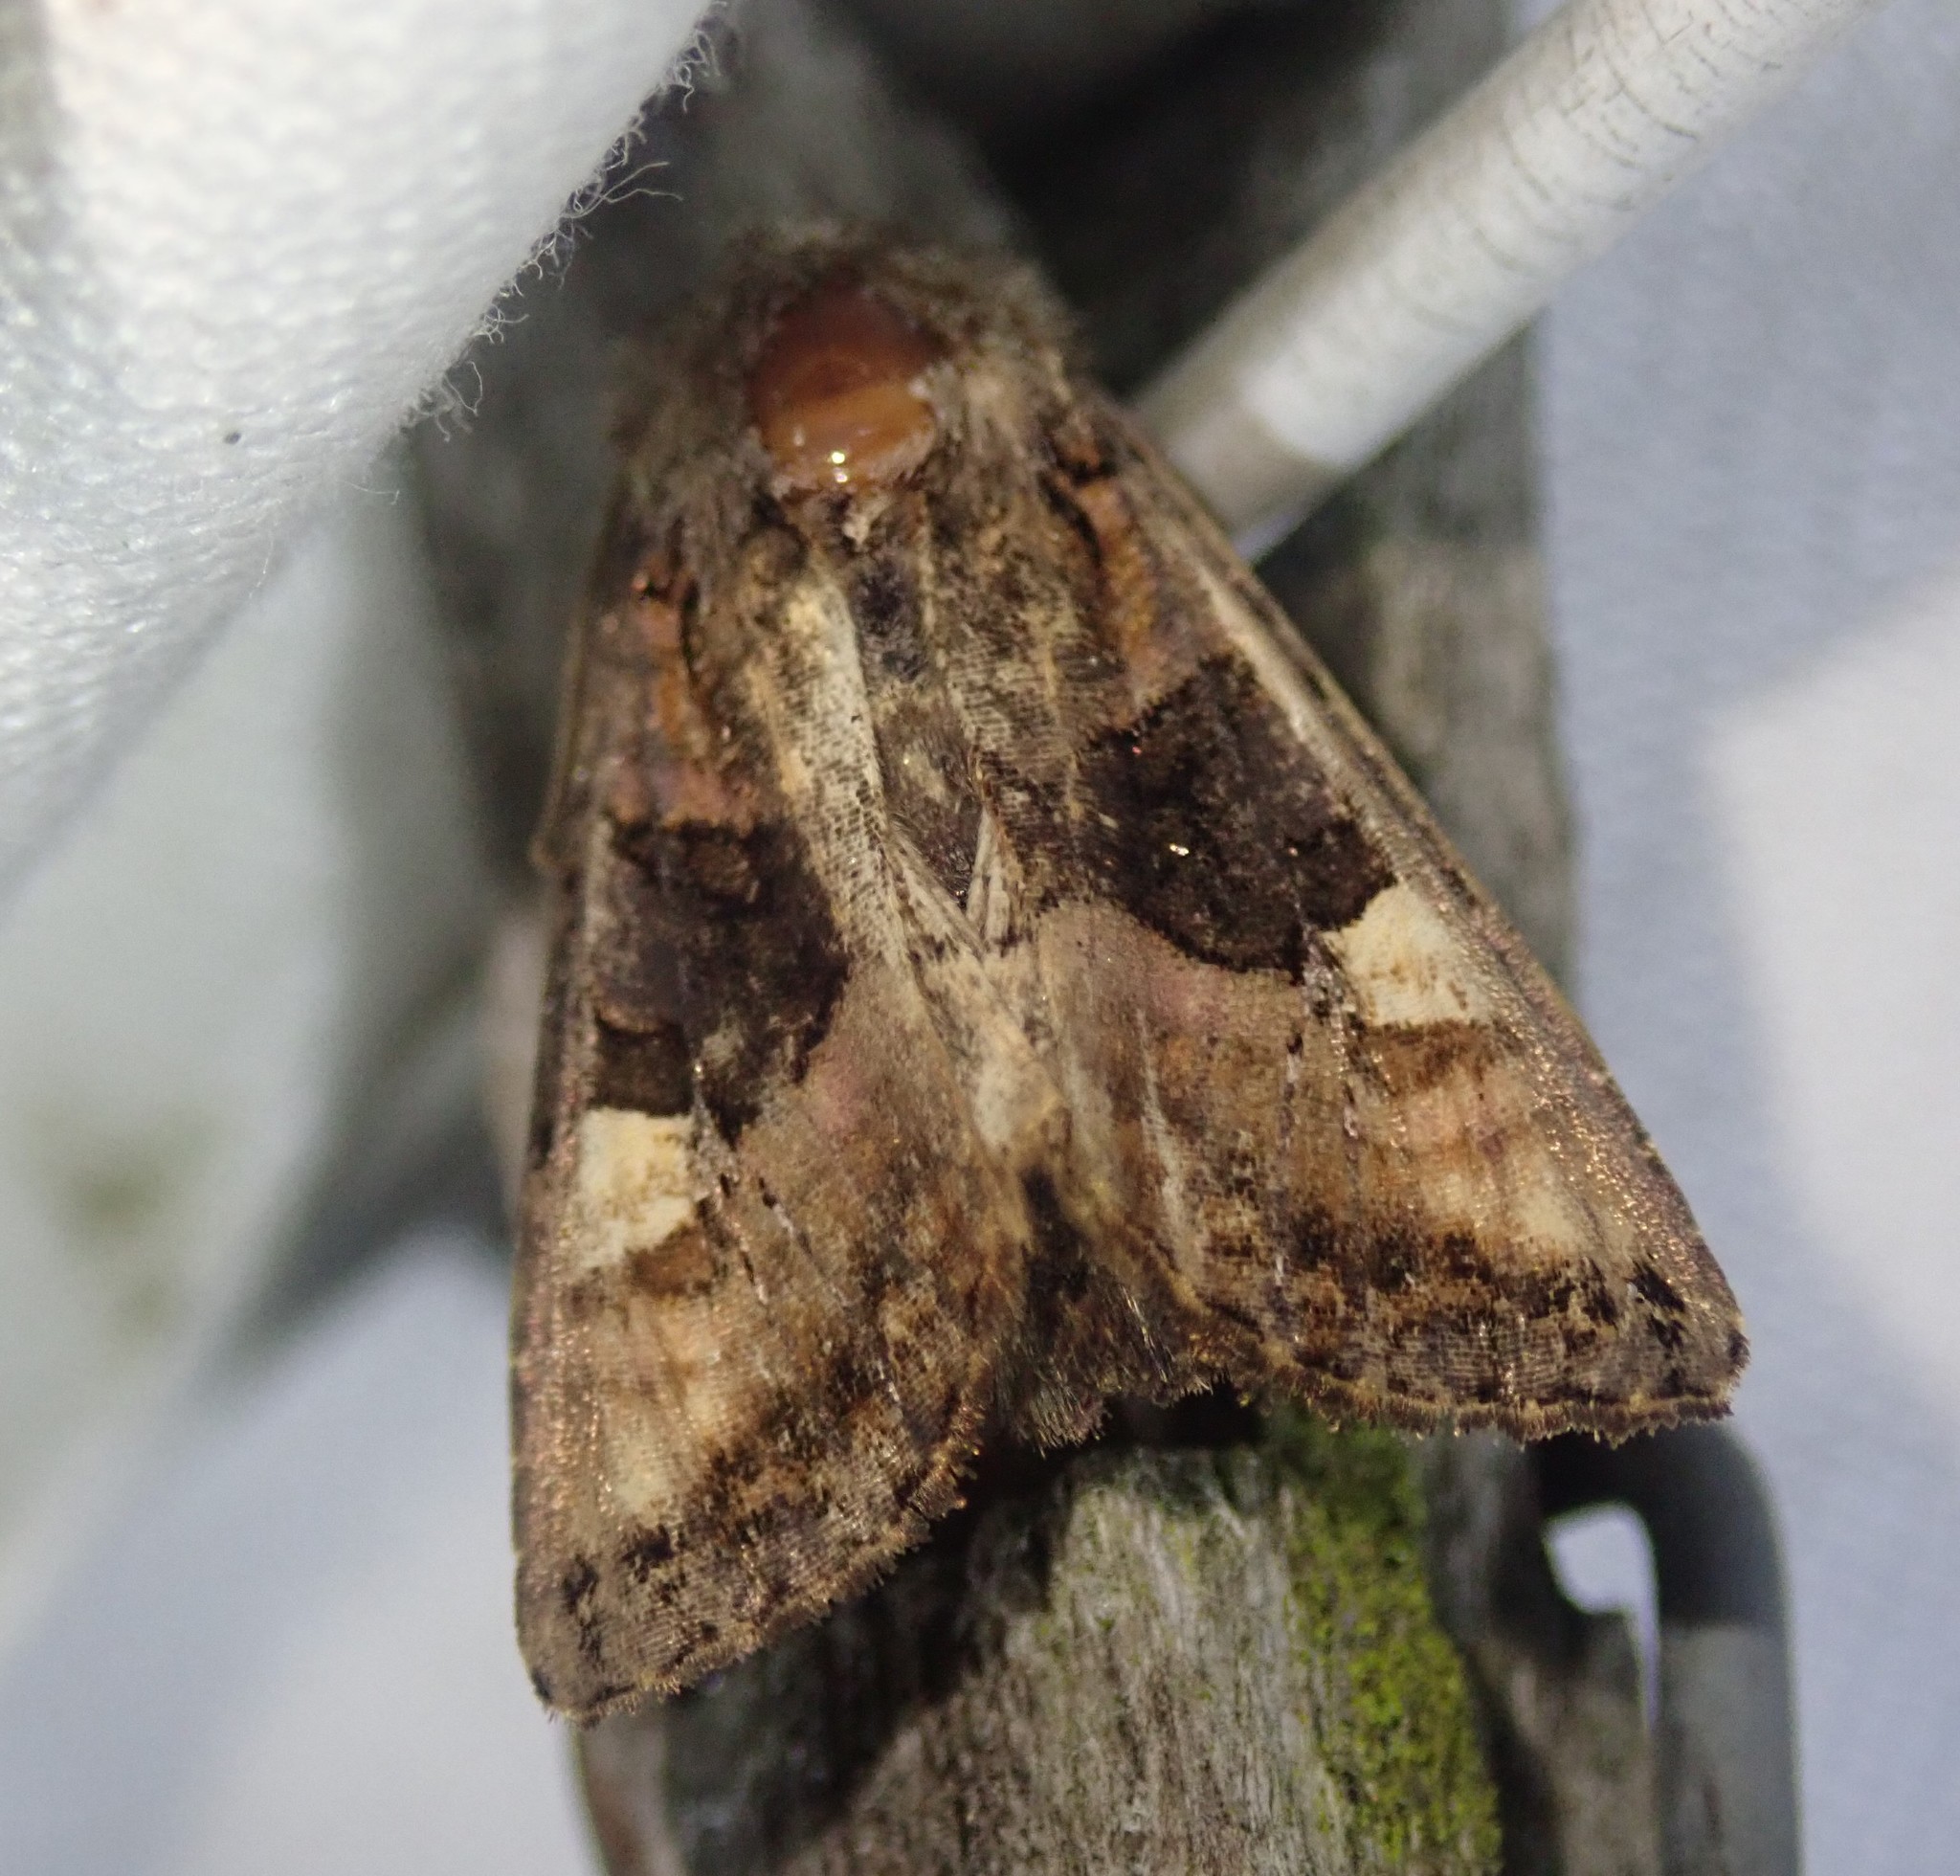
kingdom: Animalia
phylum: Arthropoda
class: Insecta
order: Lepidoptera
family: Noctuidae
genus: Euplexia
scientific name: Euplexia lucipara
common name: Small angle shades
